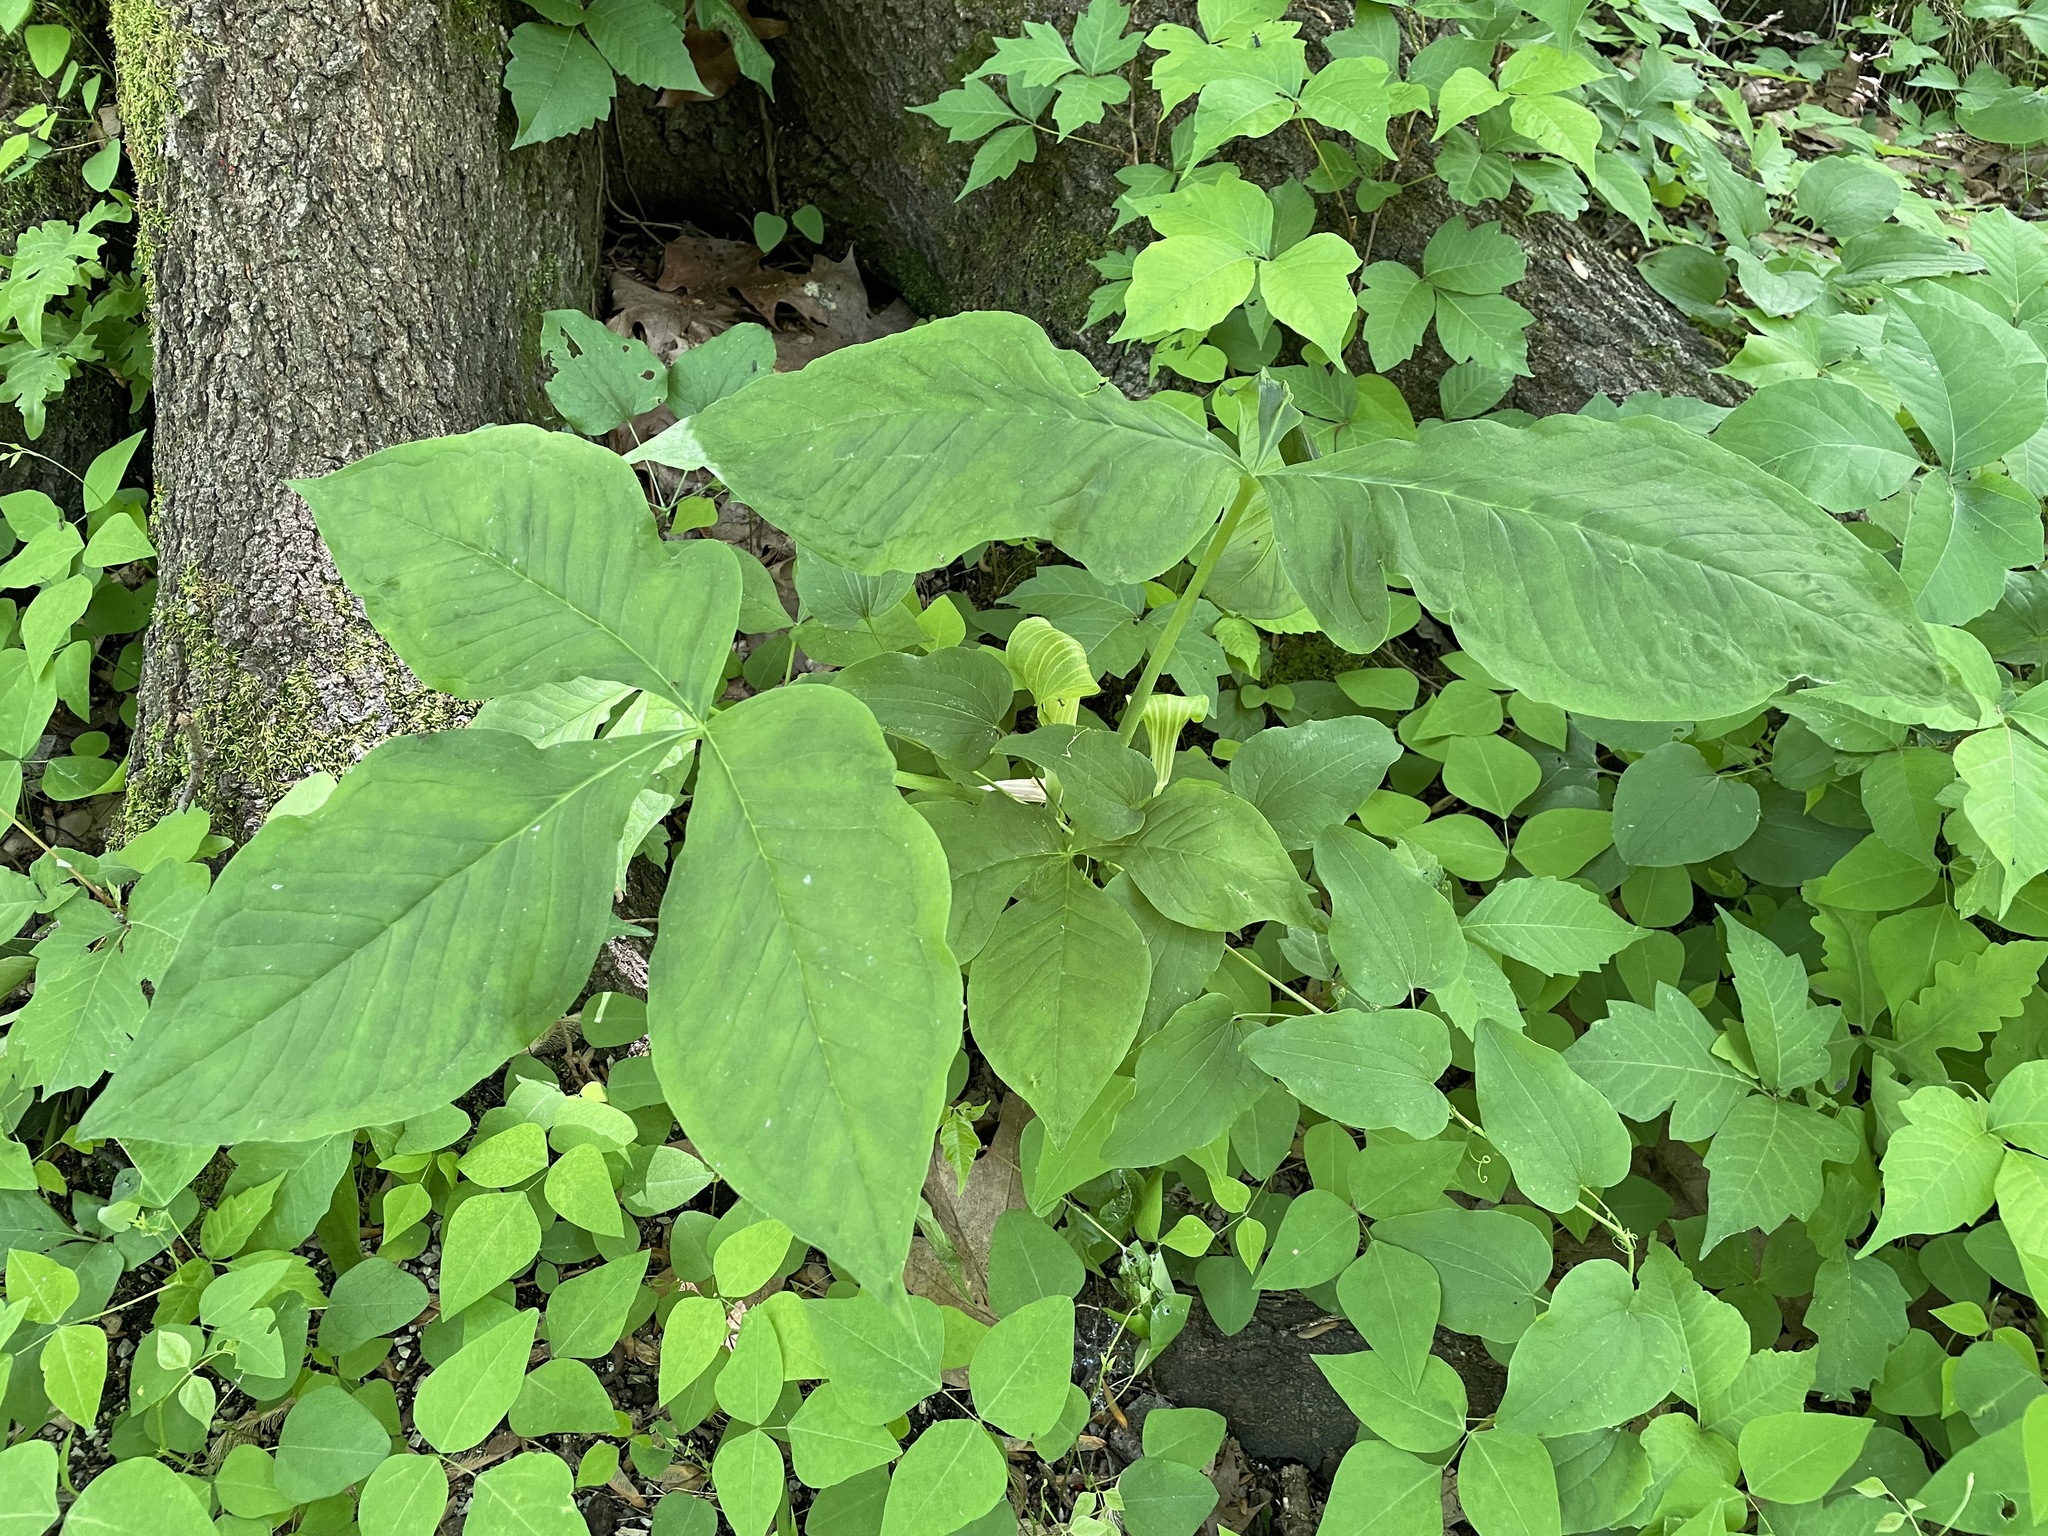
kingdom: Plantae
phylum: Tracheophyta
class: Liliopsida
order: Alismatales
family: Araceae
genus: Arisaema
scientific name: Arisaema triphyllum
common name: Jack-in-the-pulpit
